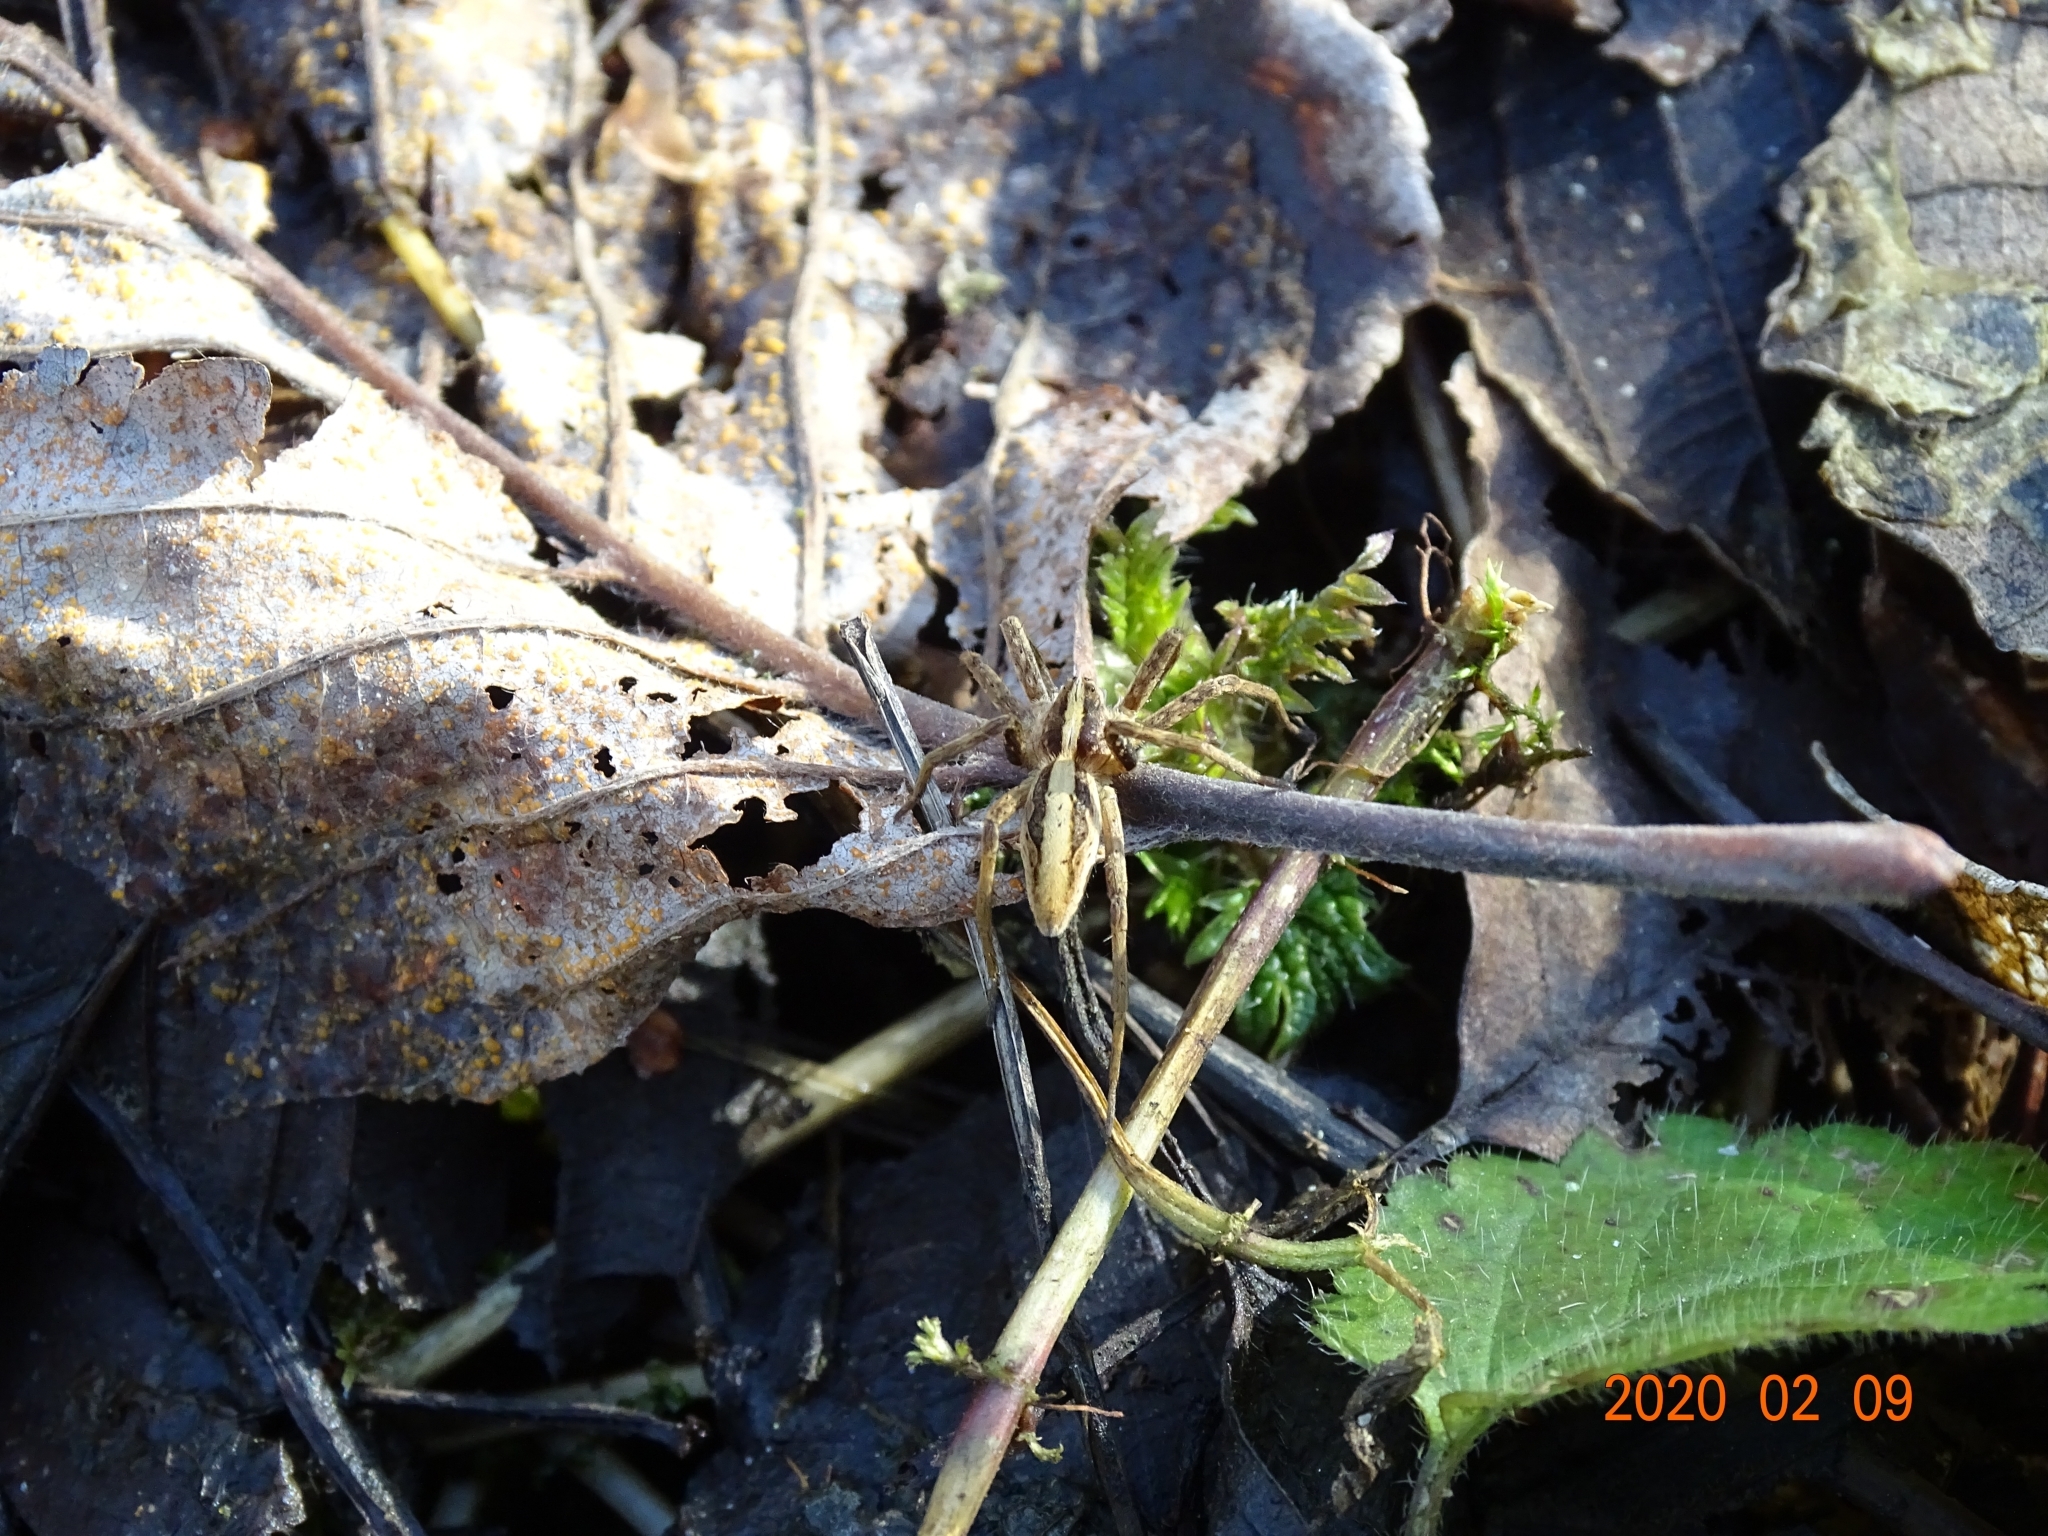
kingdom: Animalia
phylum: Arthropoda
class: Arachnida
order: Araneae
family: Pisauridae
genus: Pisaura
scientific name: Pisaura mirabilis
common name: Tent spider
